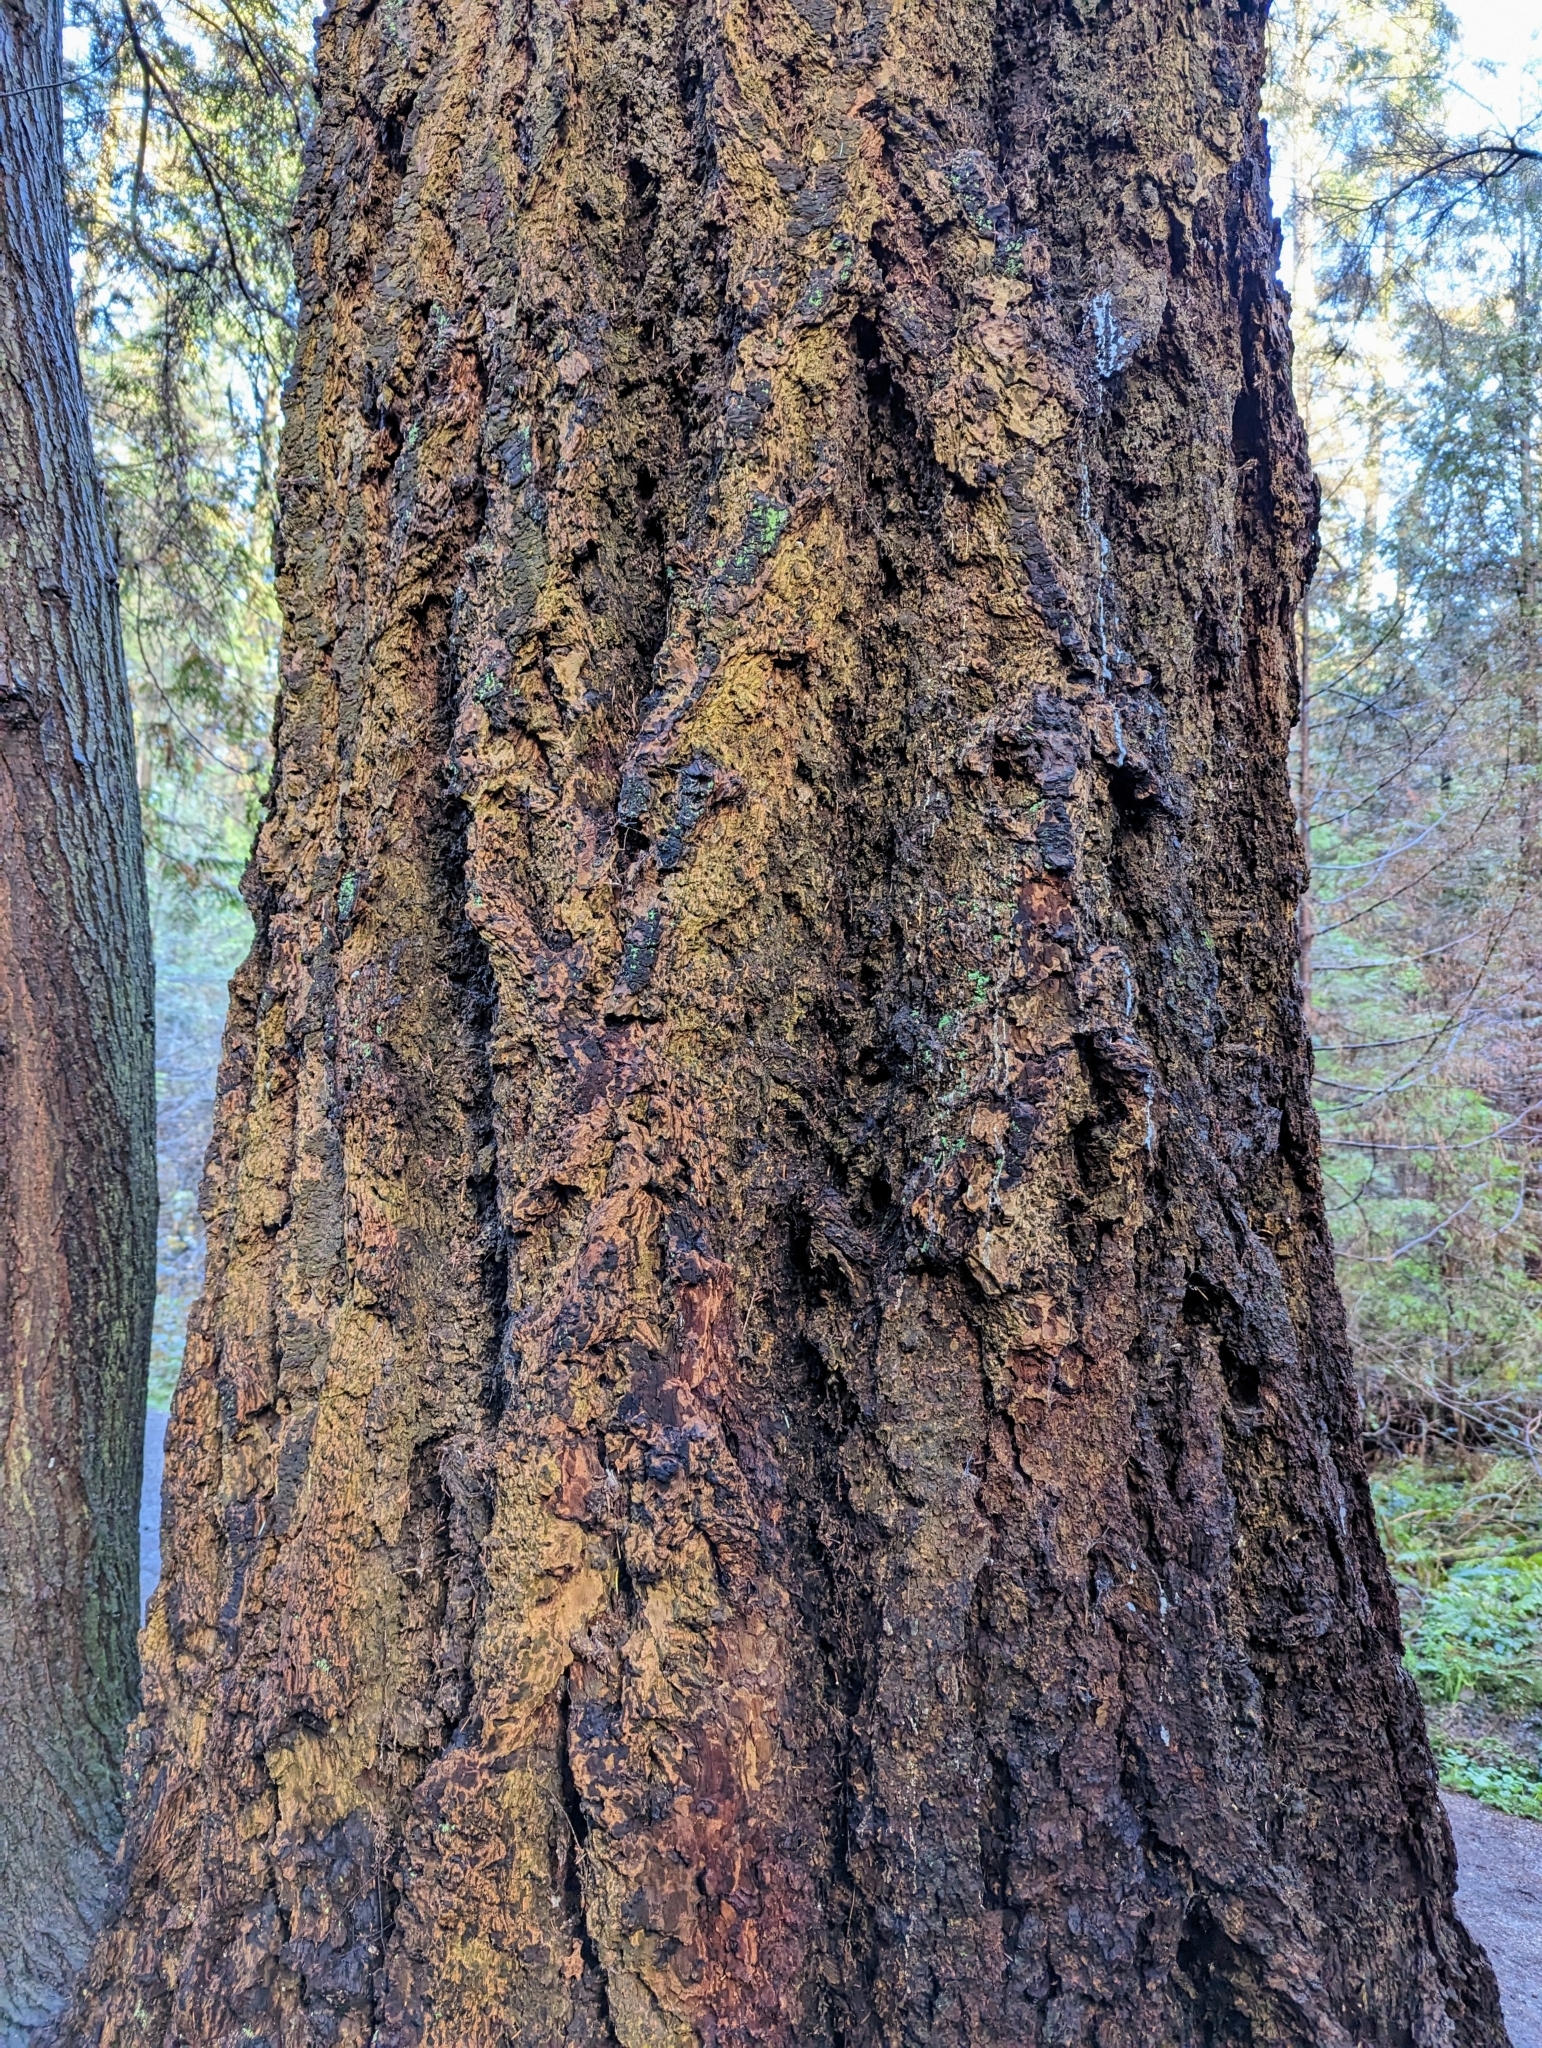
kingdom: Plantae
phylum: Tracheophyta
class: Pinopsida
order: Pinales
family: Pinaceae
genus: Pseudotsuga
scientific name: Pseudotsuga menziesii
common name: Douglas fir
